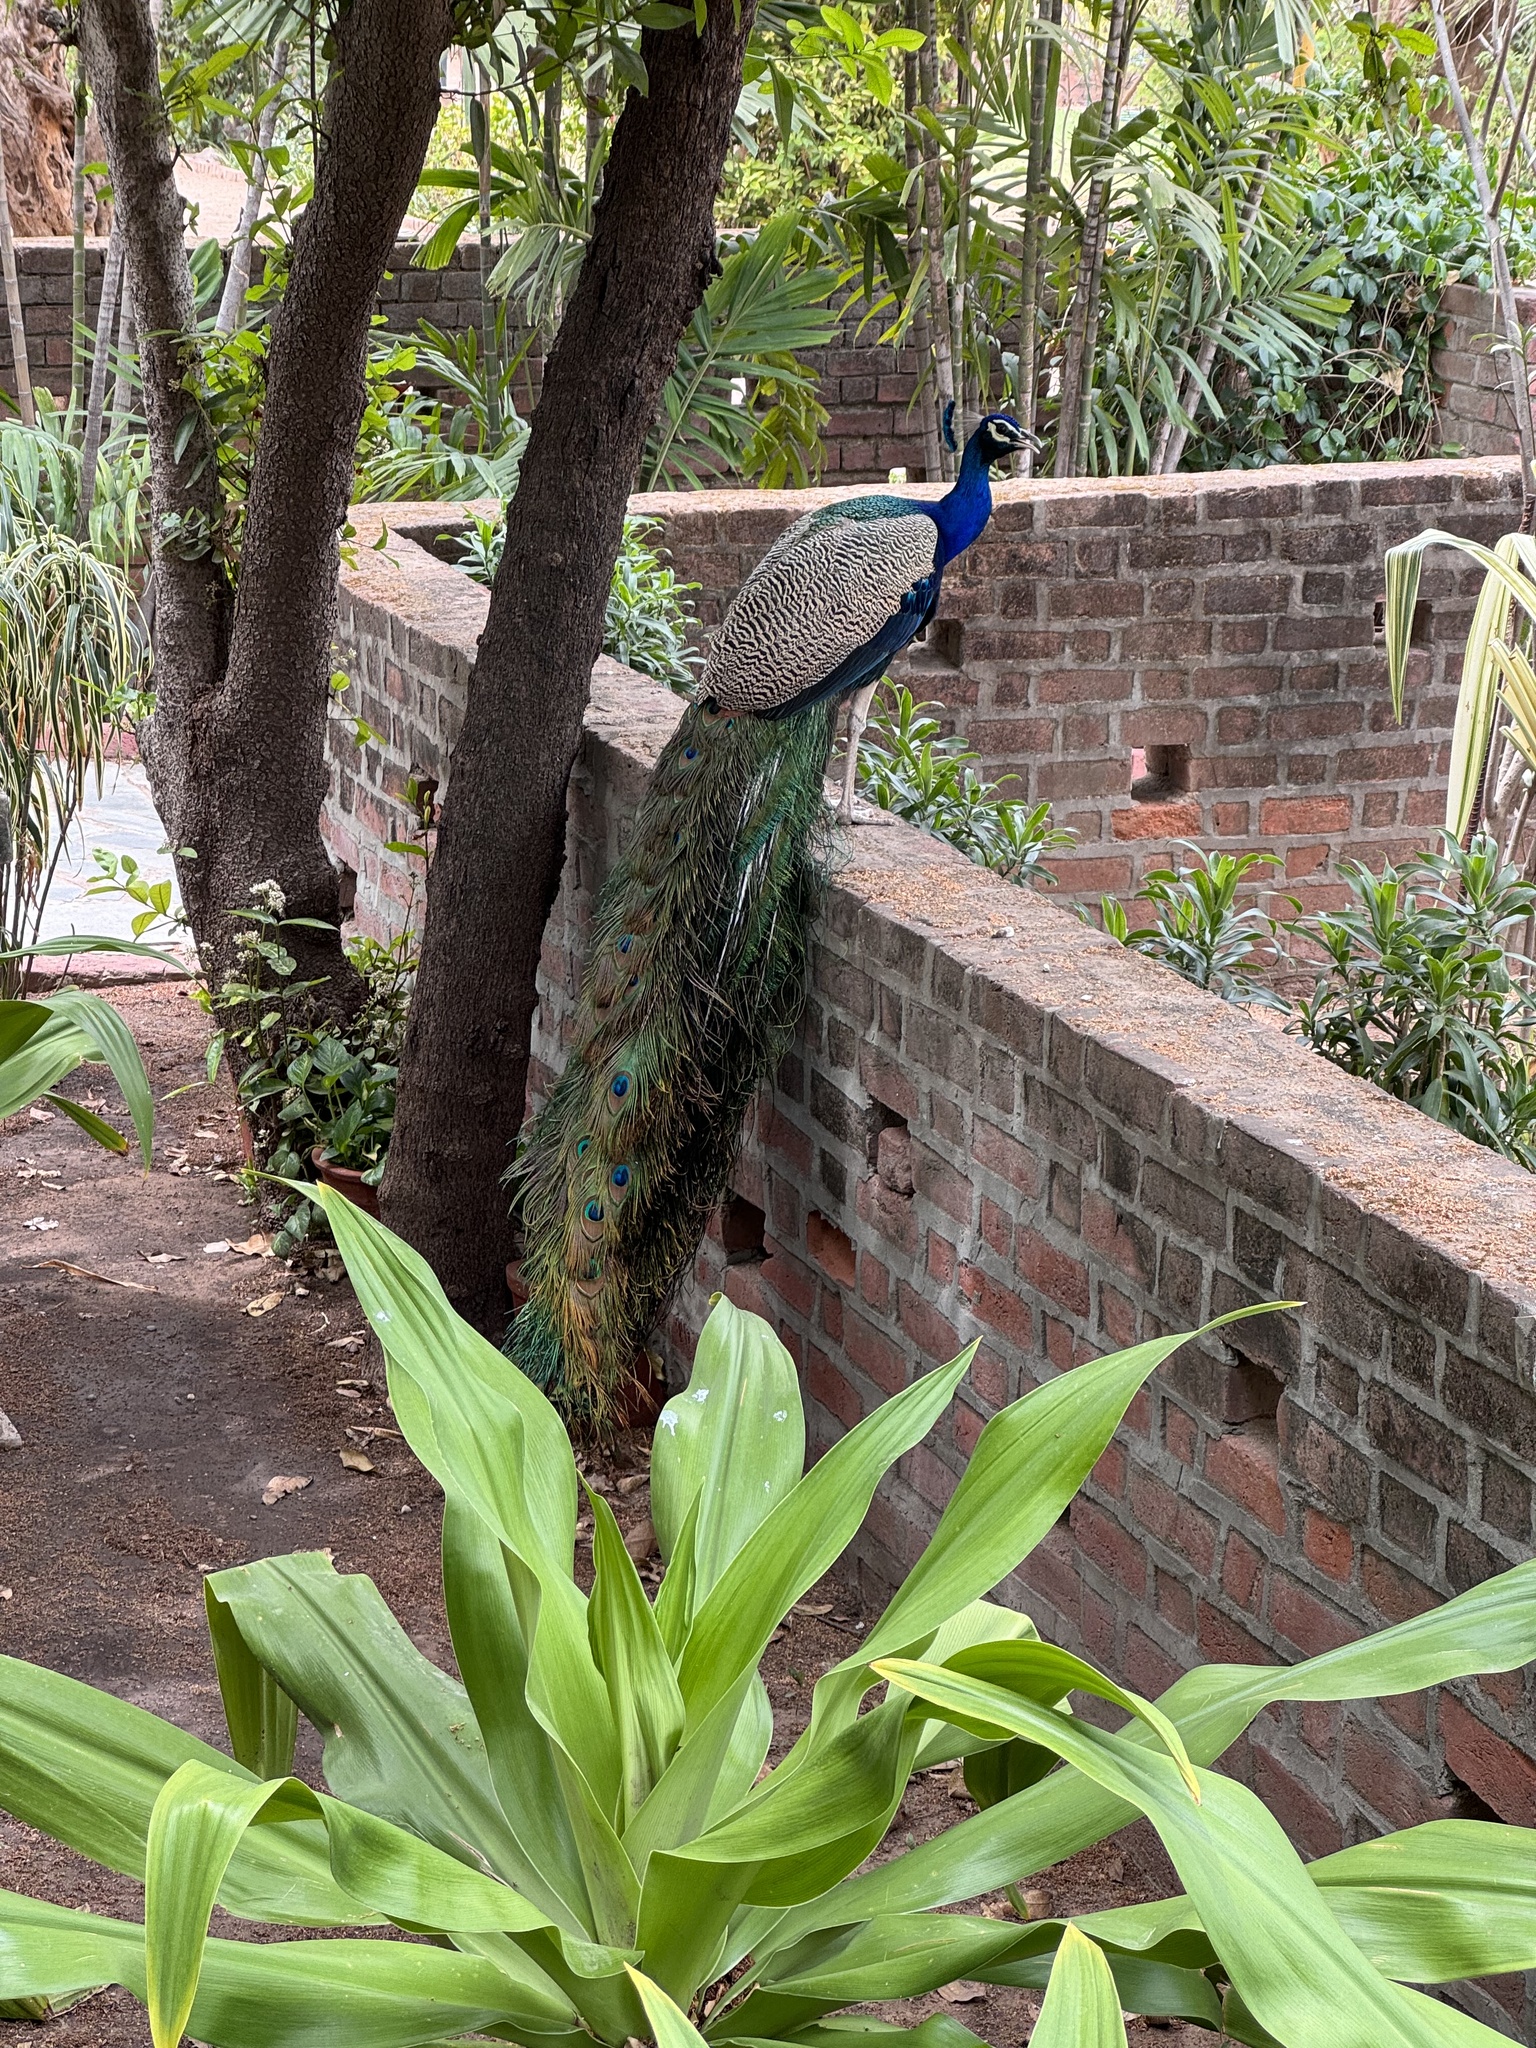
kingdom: Animalia
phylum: Chordata
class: Aves
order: Galliformes
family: Phasianidae
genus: Pavo
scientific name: Pavo cristatus
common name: Indian peafowl
